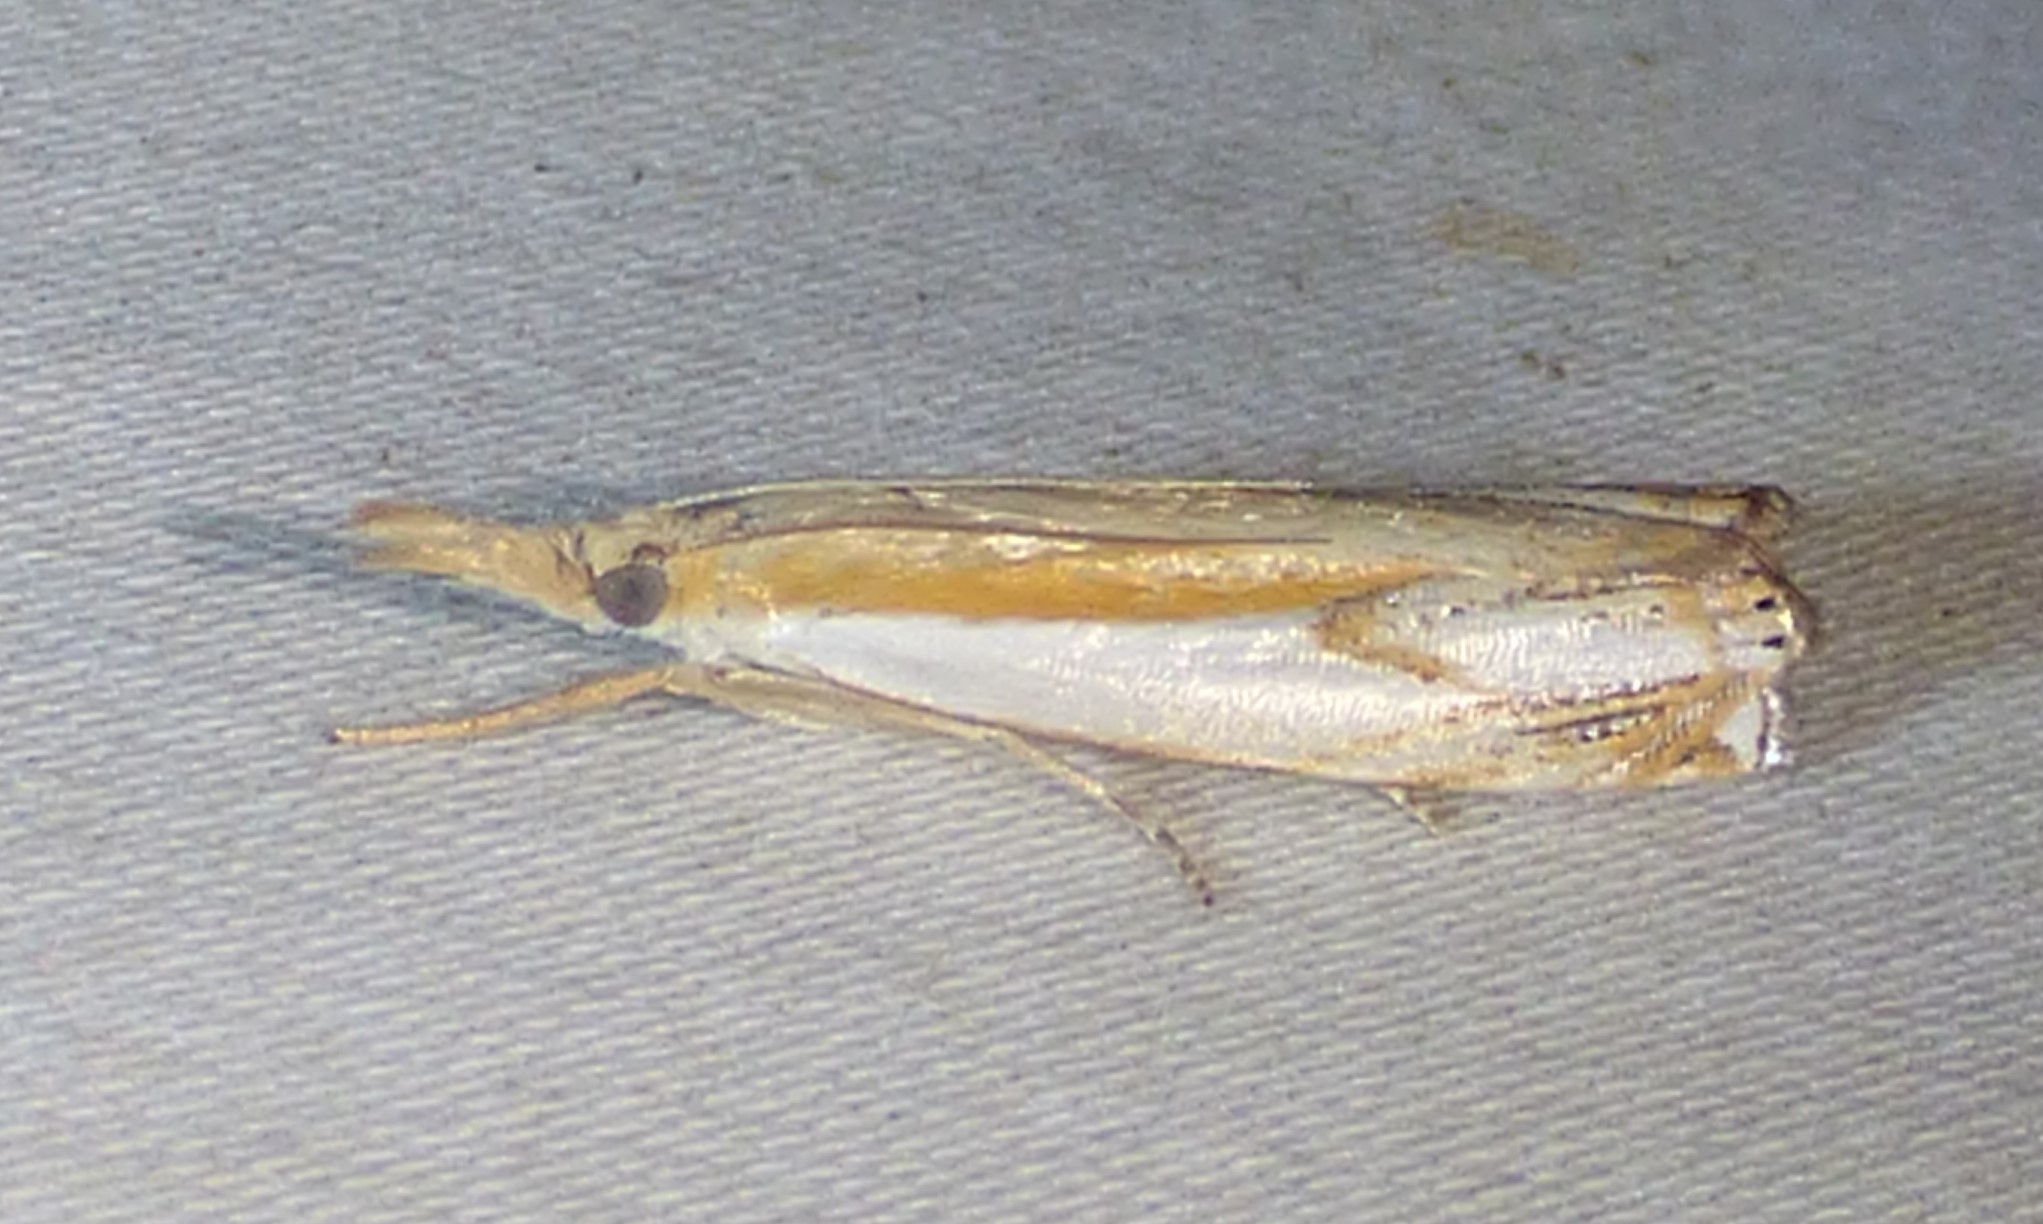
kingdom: Animalia
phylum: Arthropoda
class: Insecta
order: Lepidoptera
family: Crambidae
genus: Crambus
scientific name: Crambus agitatellus
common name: Double-banded grass-veneer
